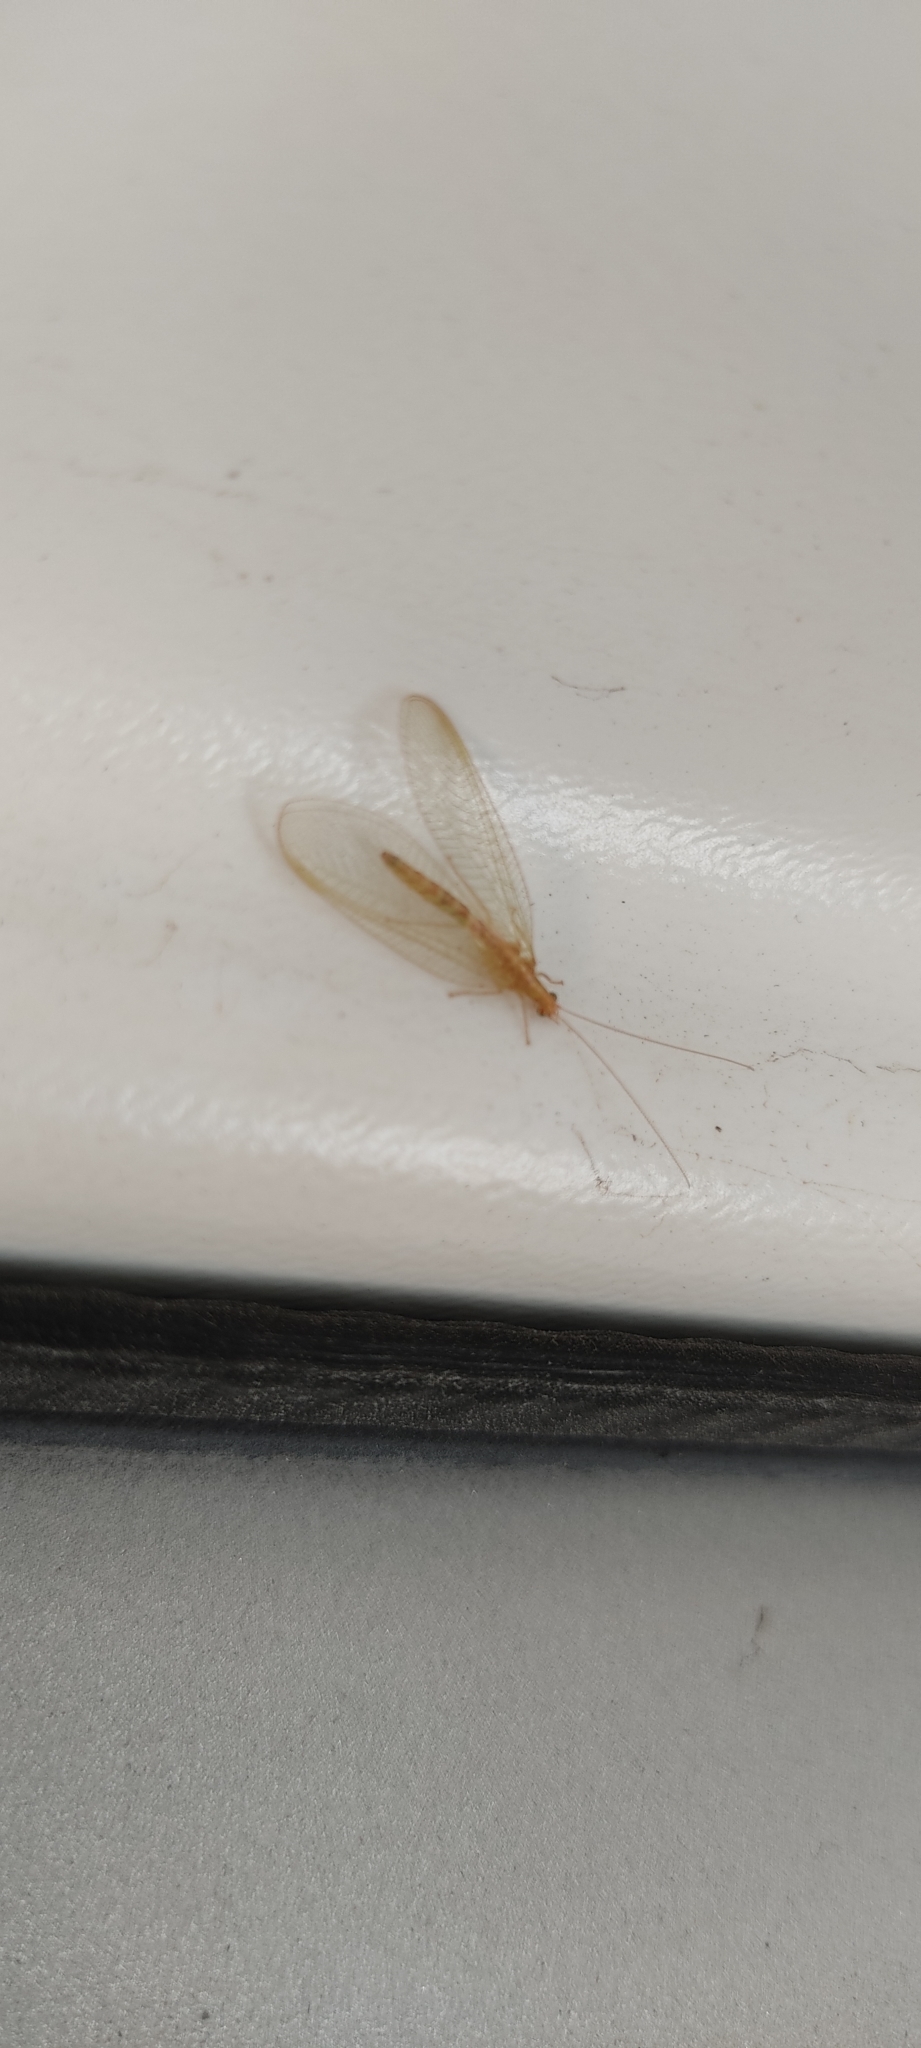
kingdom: Animalia
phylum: Arthropoda
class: Insecta
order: Neuroptera
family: Chrysopidae
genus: Chrysoperla
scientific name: Chrysoperla
